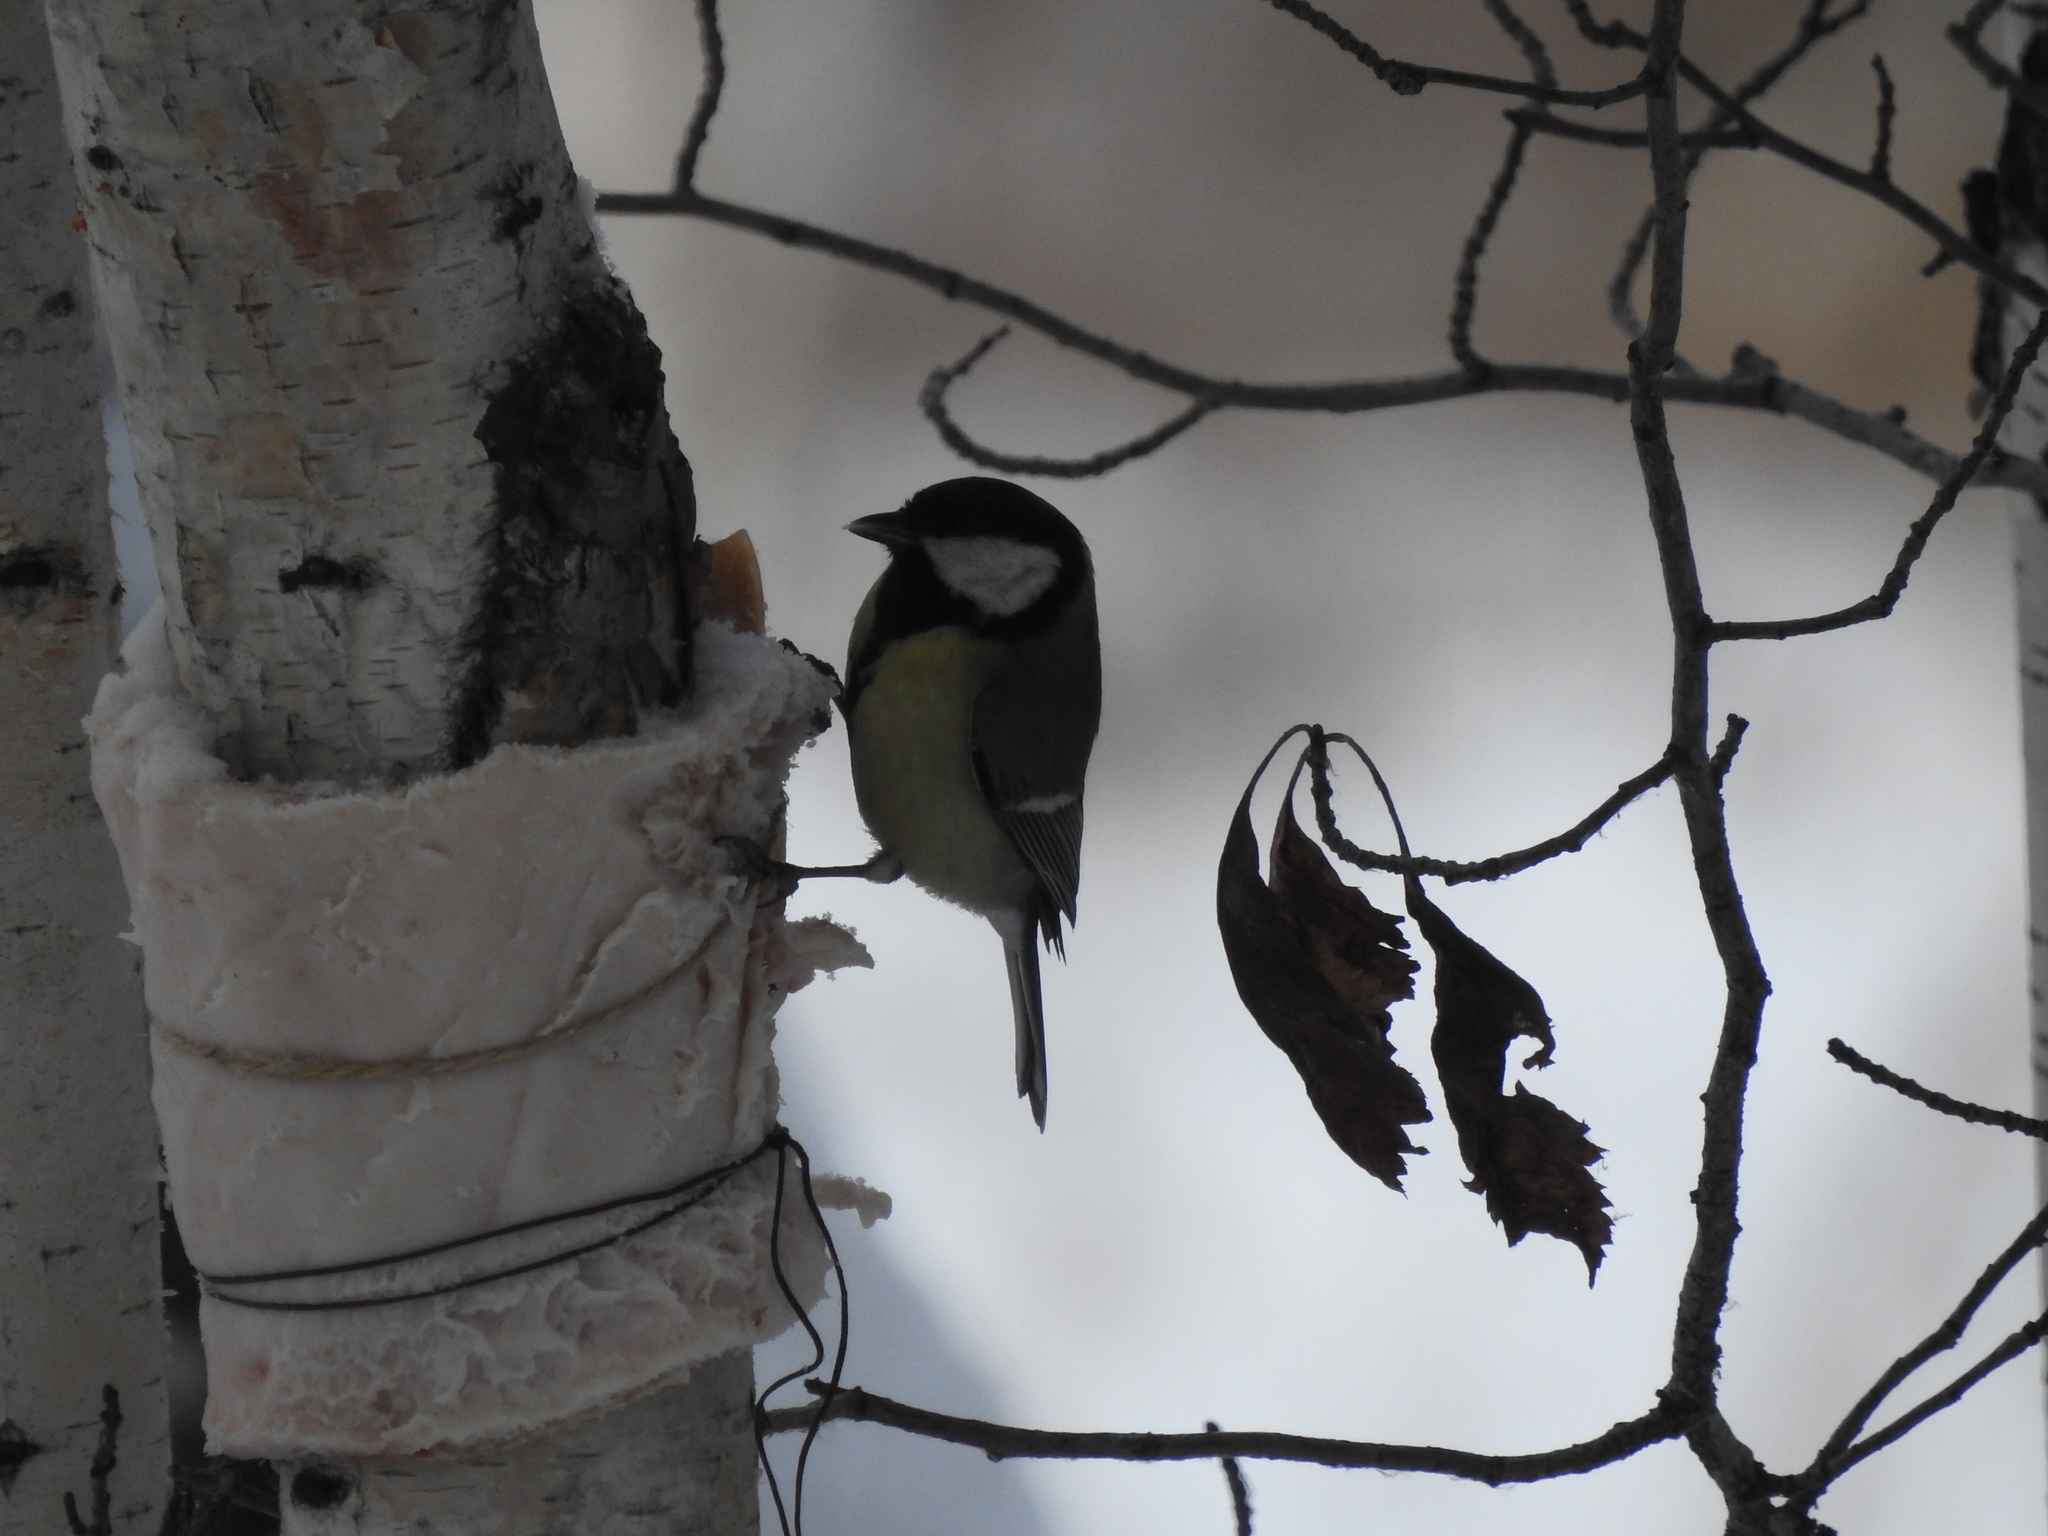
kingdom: Animalia
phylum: Chordata
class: Aves
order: Passeriformes
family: Paridae
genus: Parus
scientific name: Parus major
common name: Great tit
